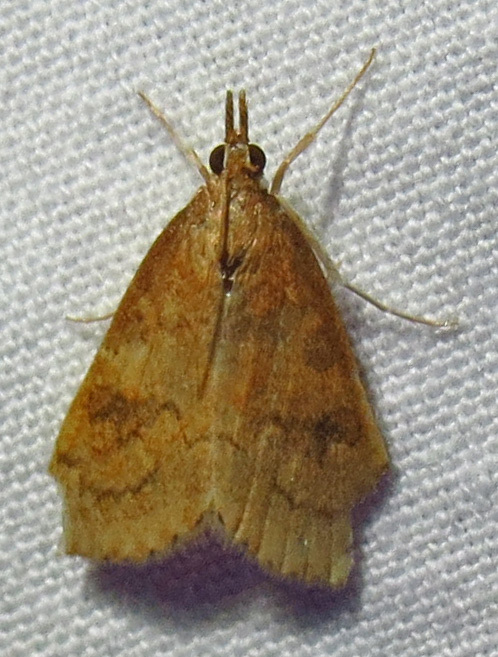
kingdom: Animalia
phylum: Arthropoda
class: Insecta
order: Lepidoptera
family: Crambidae
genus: Udea
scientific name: Udea rubigalis
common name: Celery leaftier moth
